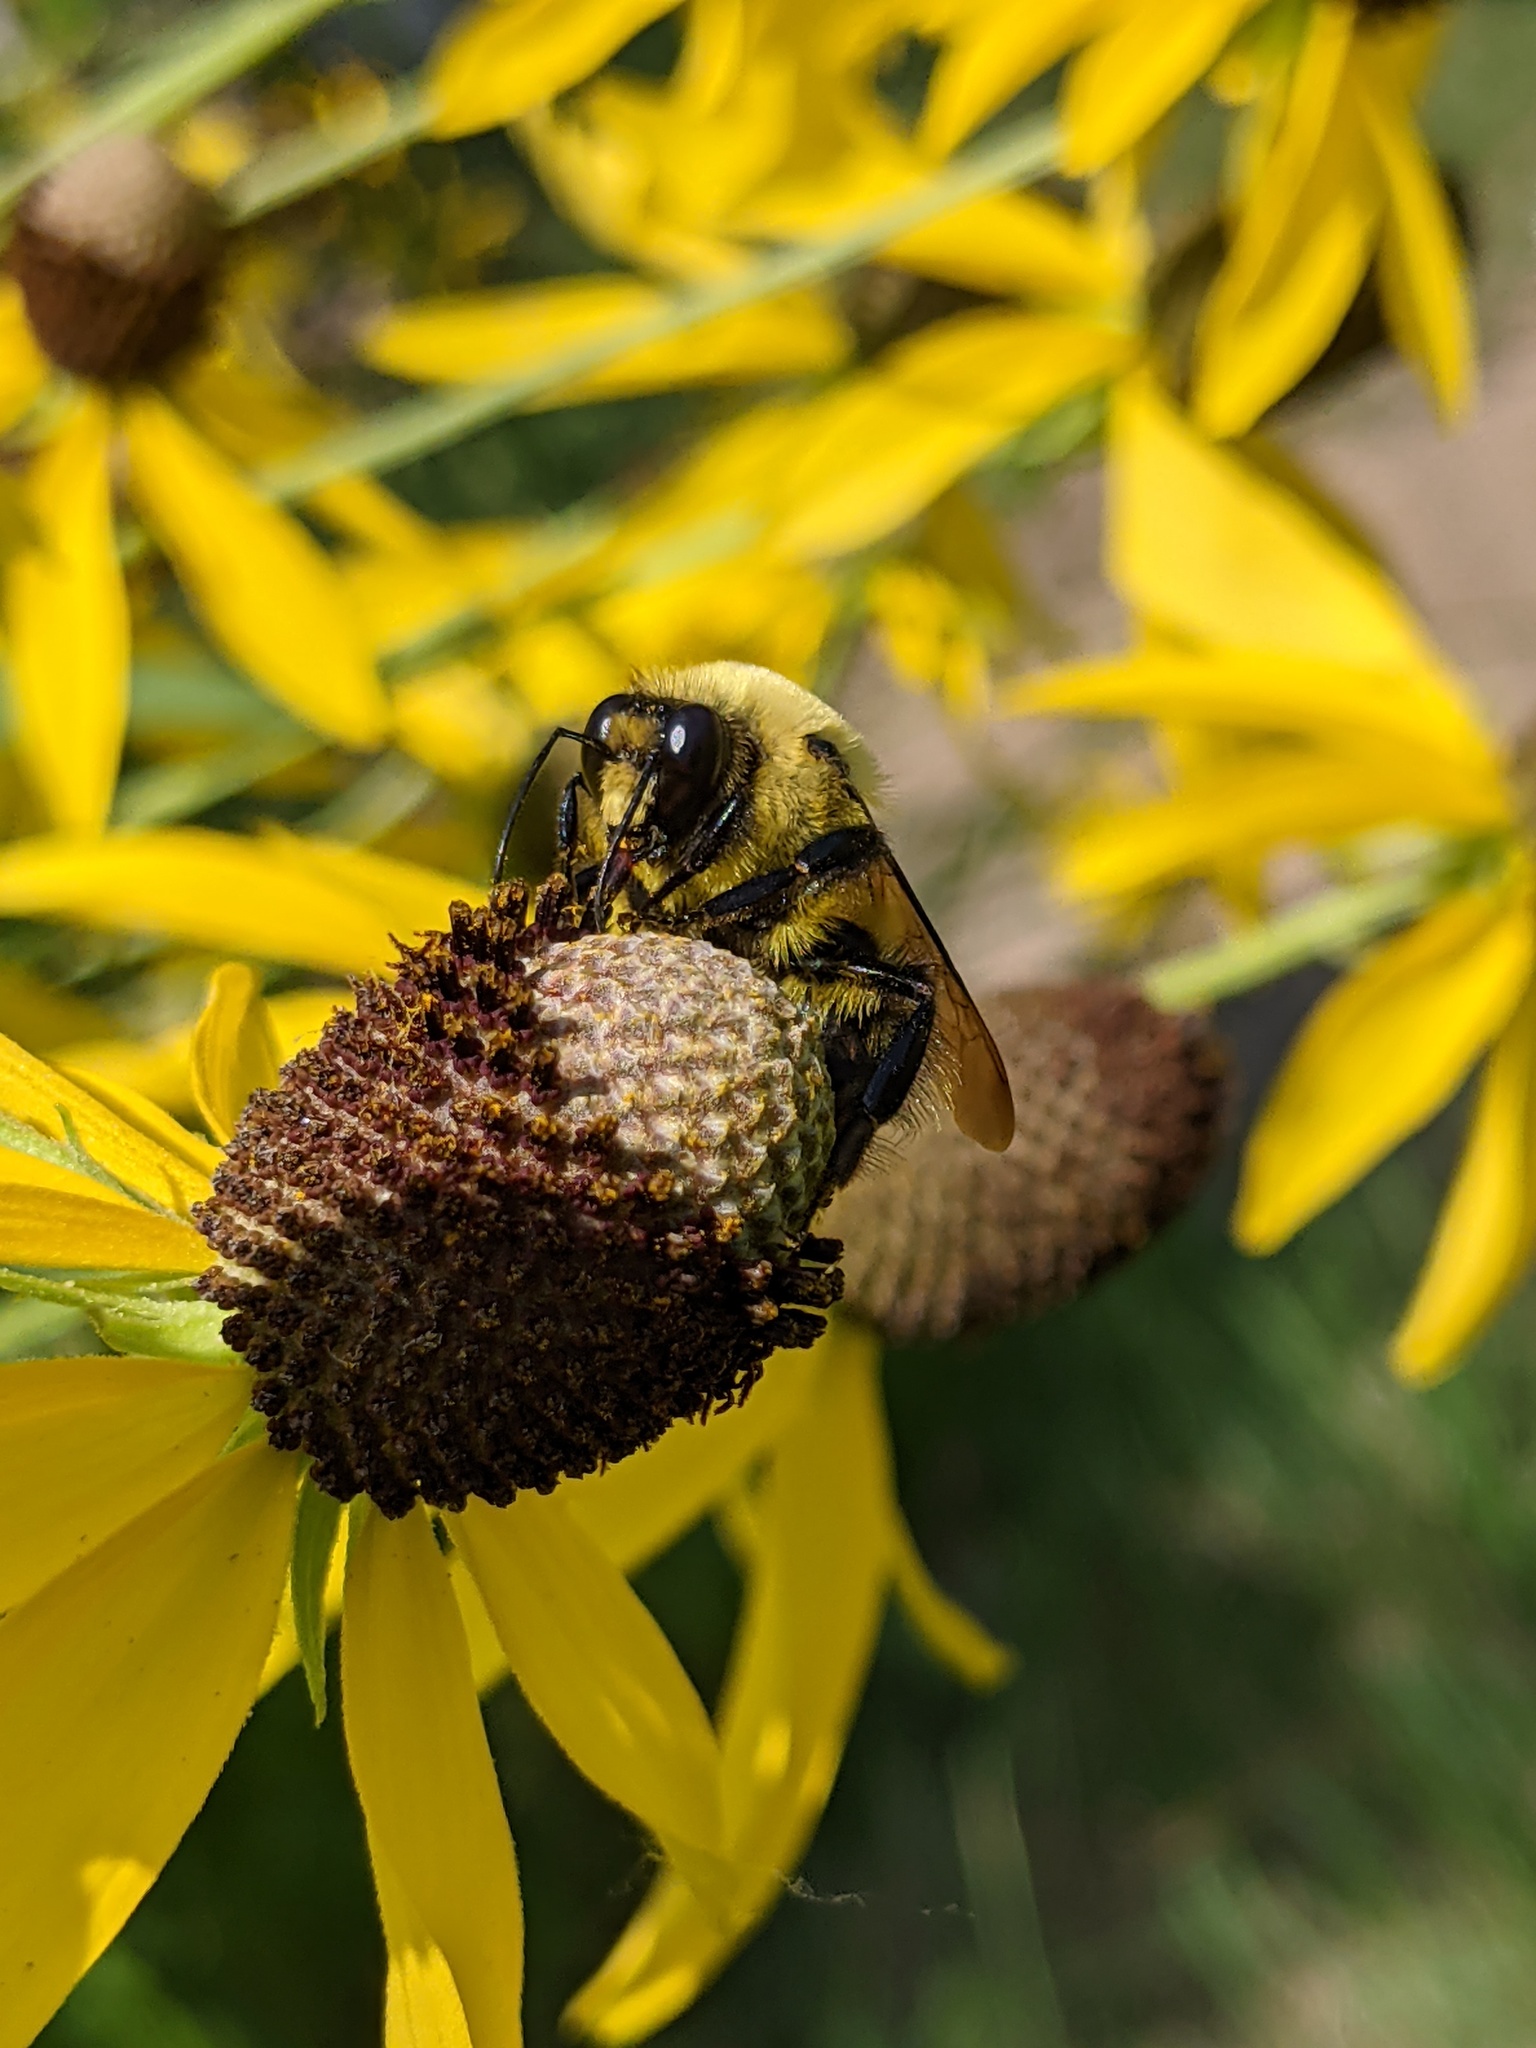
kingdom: Animalia
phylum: Arthropoda
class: Insecta
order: Hymenoptera
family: Apidae
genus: Bombus
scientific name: Bombus griseocollis
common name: Brown-belted bumble bee
